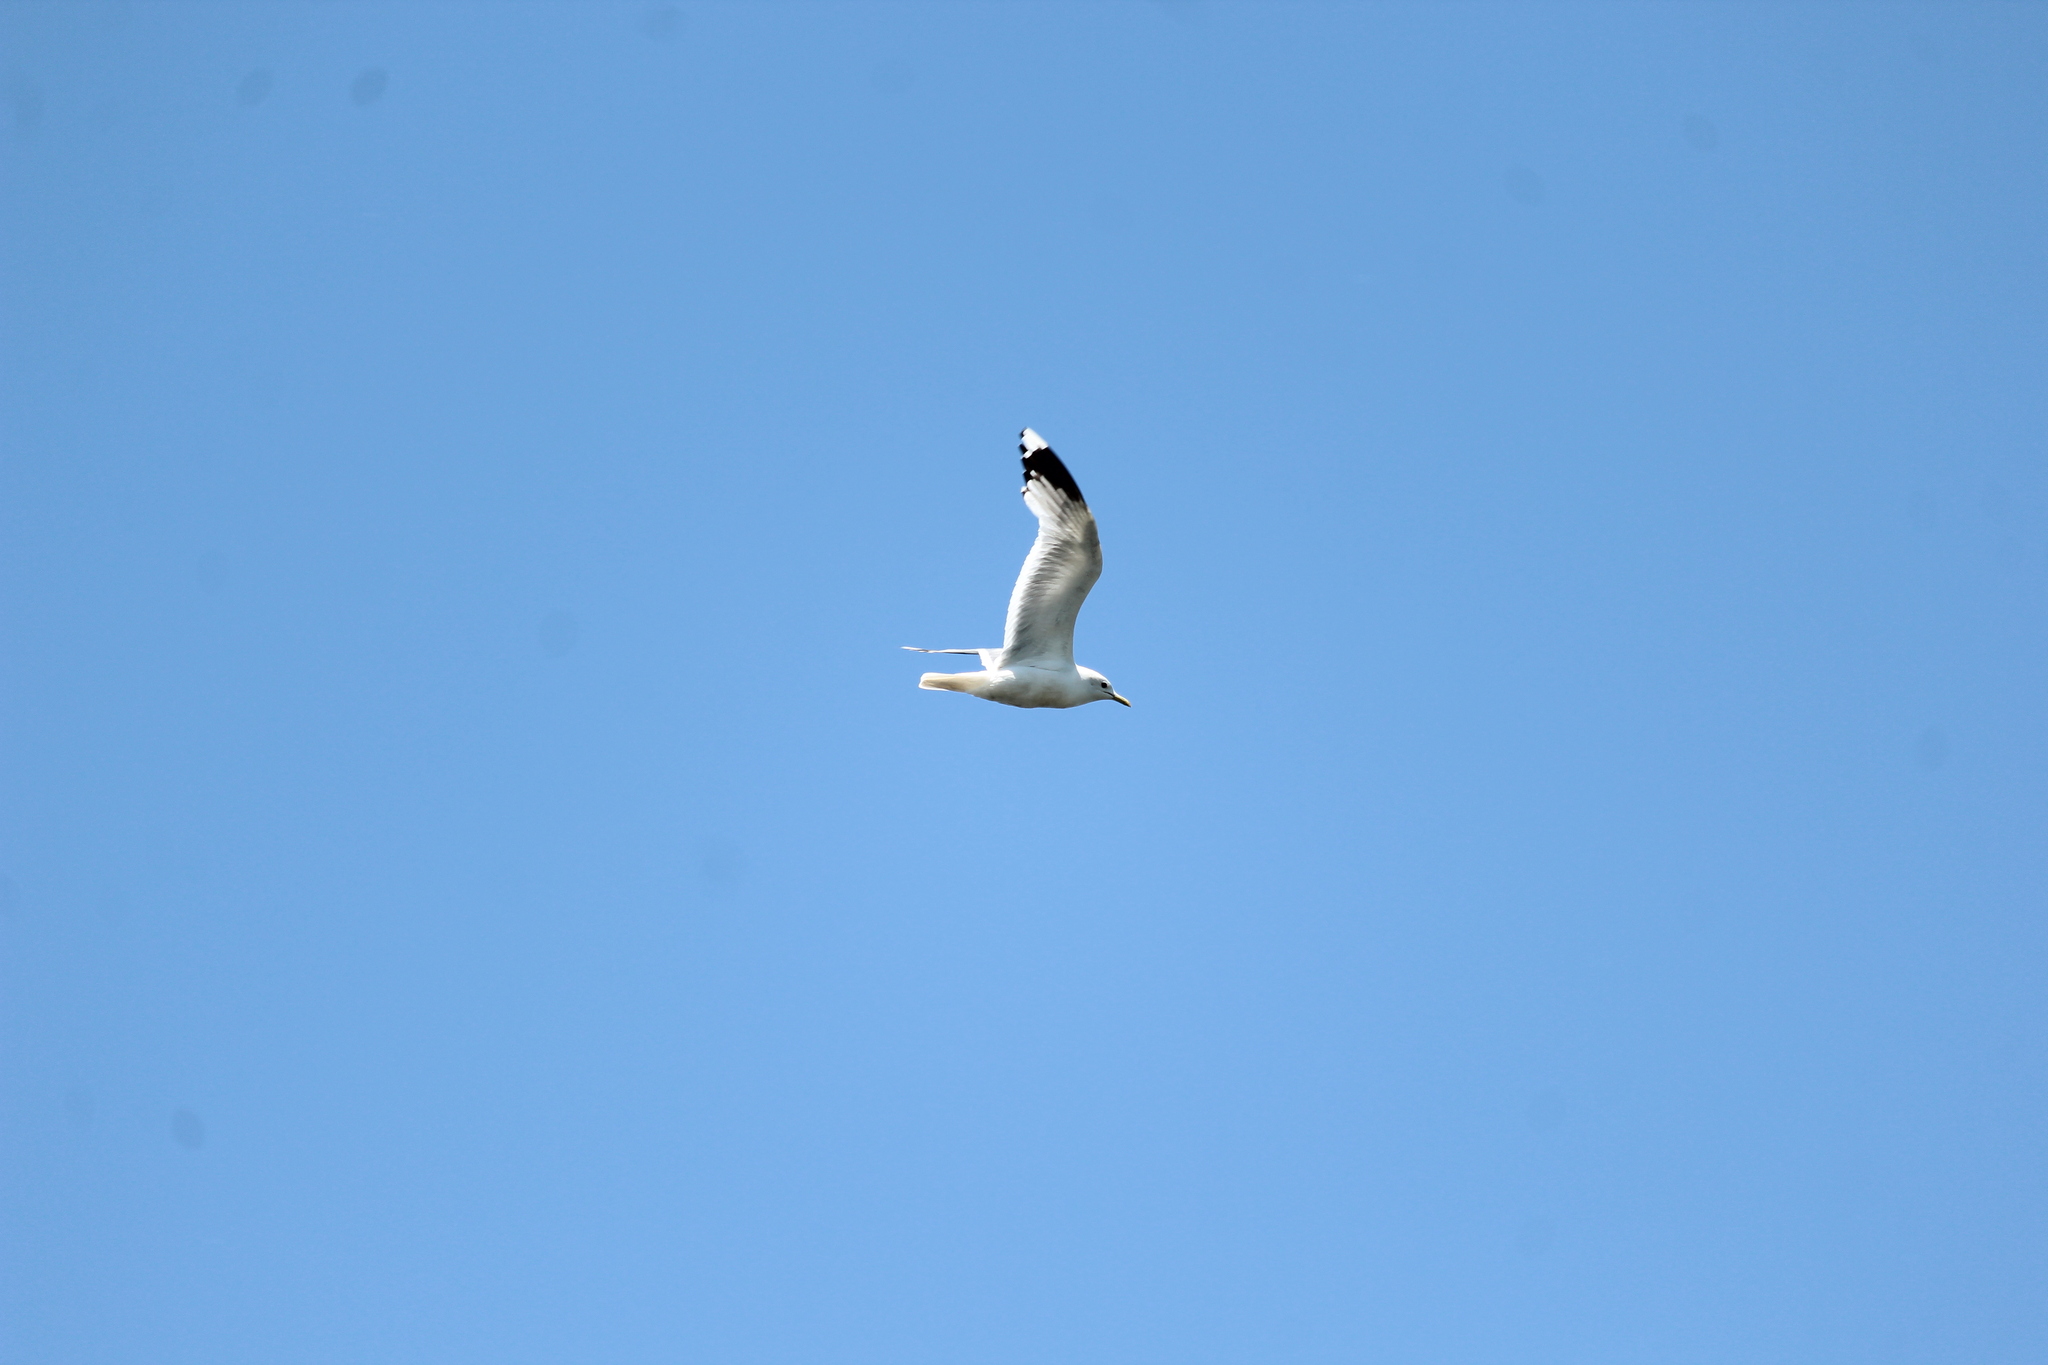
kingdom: Animalia
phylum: Chordata
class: Aves
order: Charadriiformes
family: Laridae
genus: Larus
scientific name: Larus canus
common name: Mew gull
